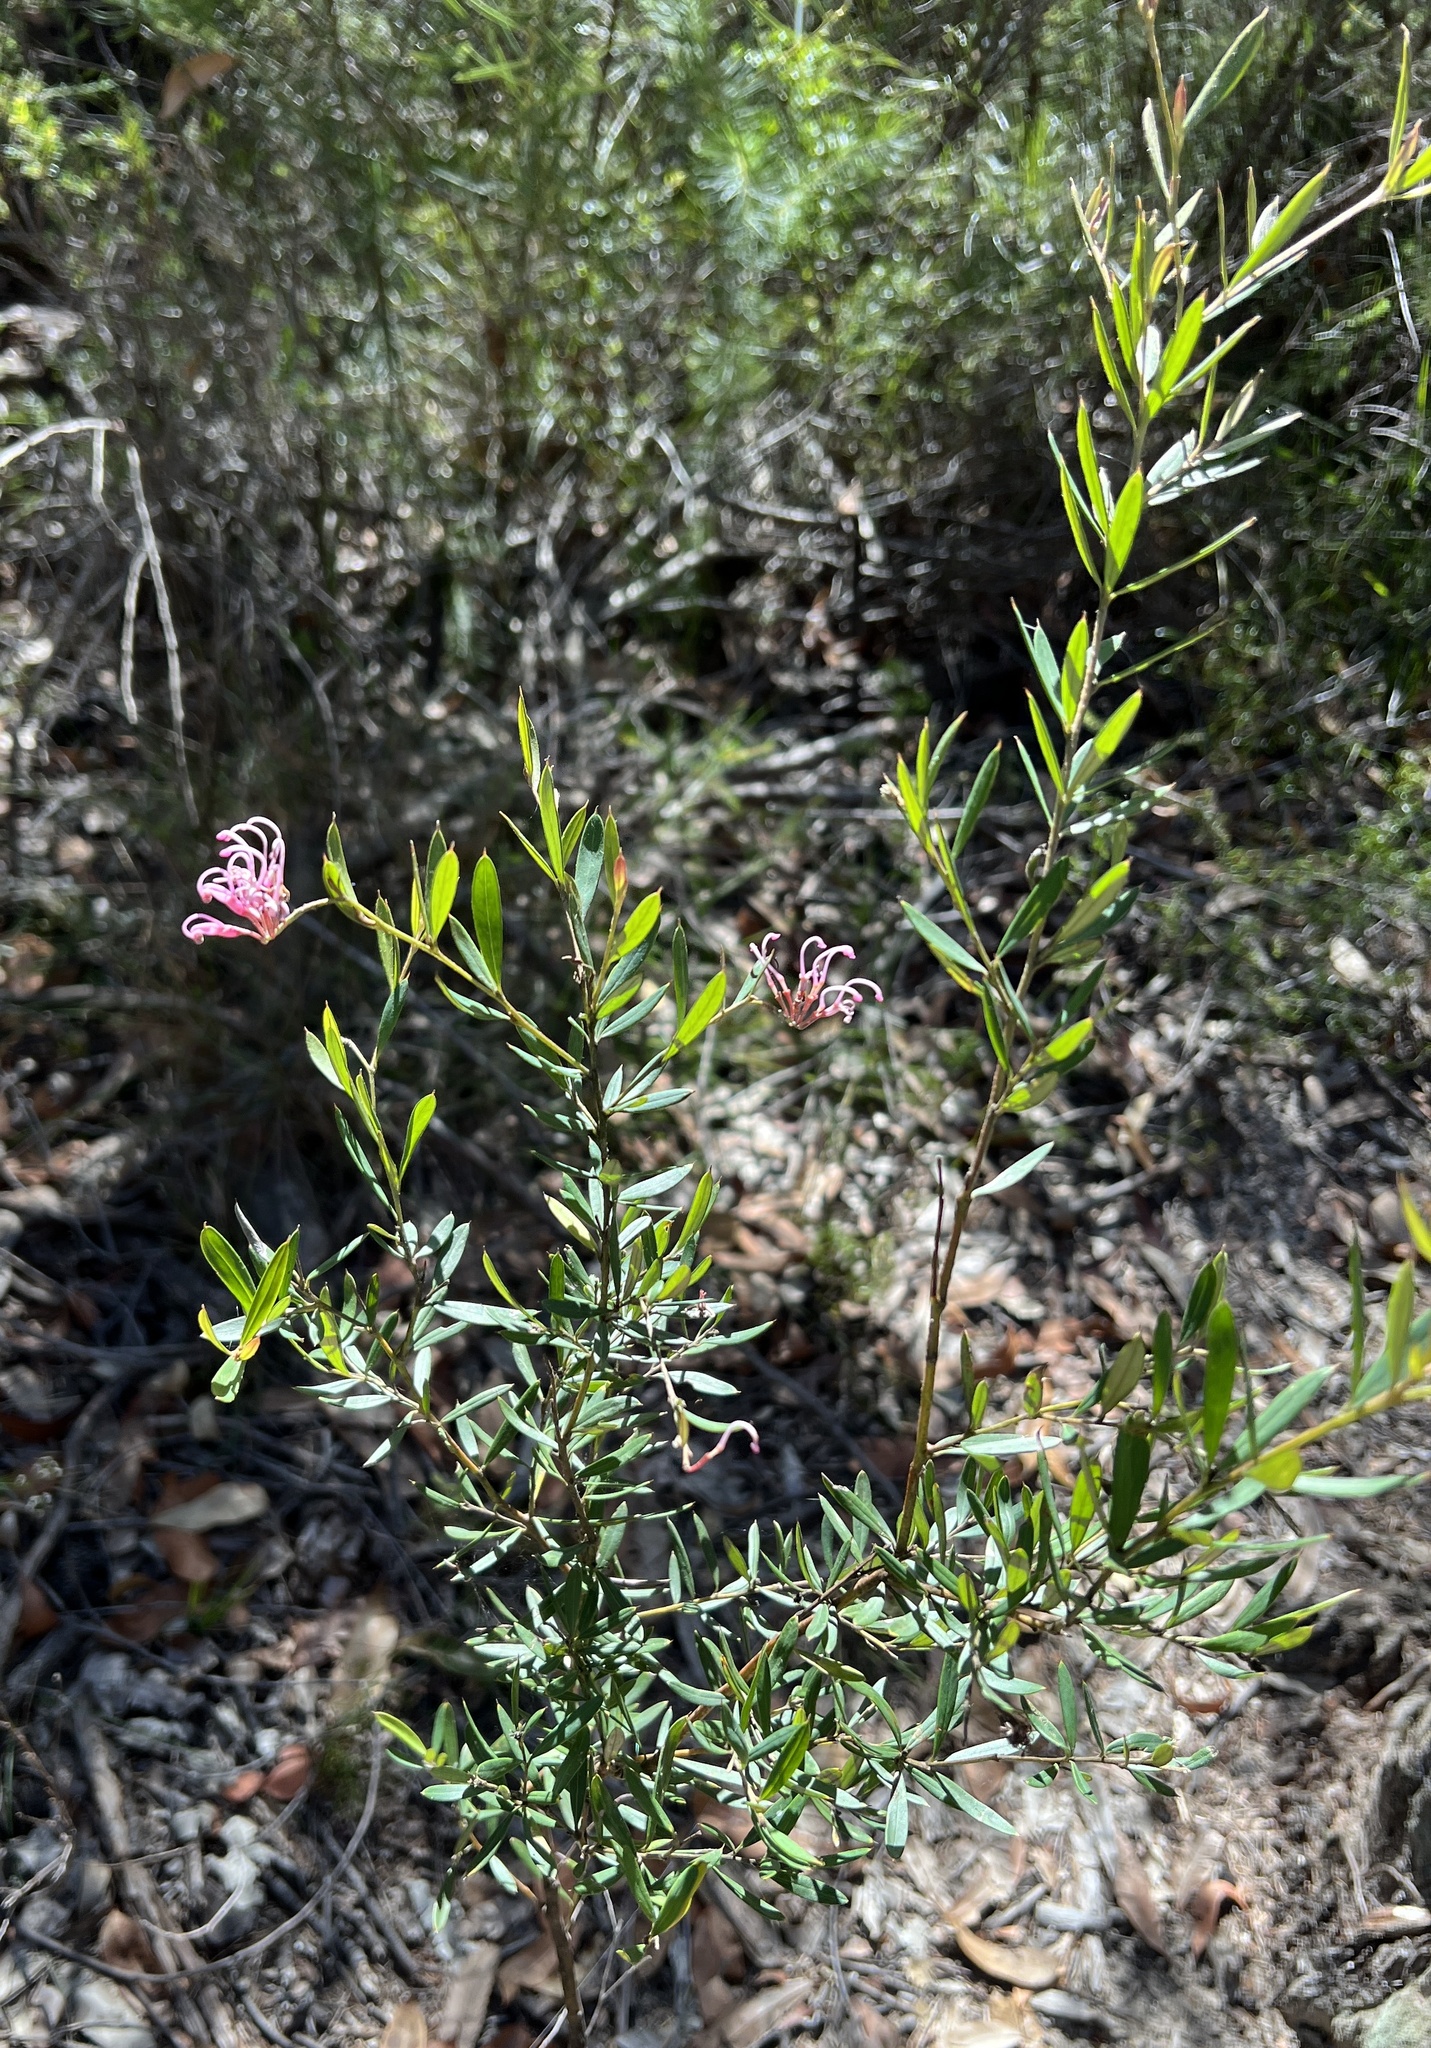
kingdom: Plantae
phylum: Tracheophyta
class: Magnoliopsida
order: Proteales
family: Proteaceae
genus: Grevillea
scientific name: Grevillea sericea
